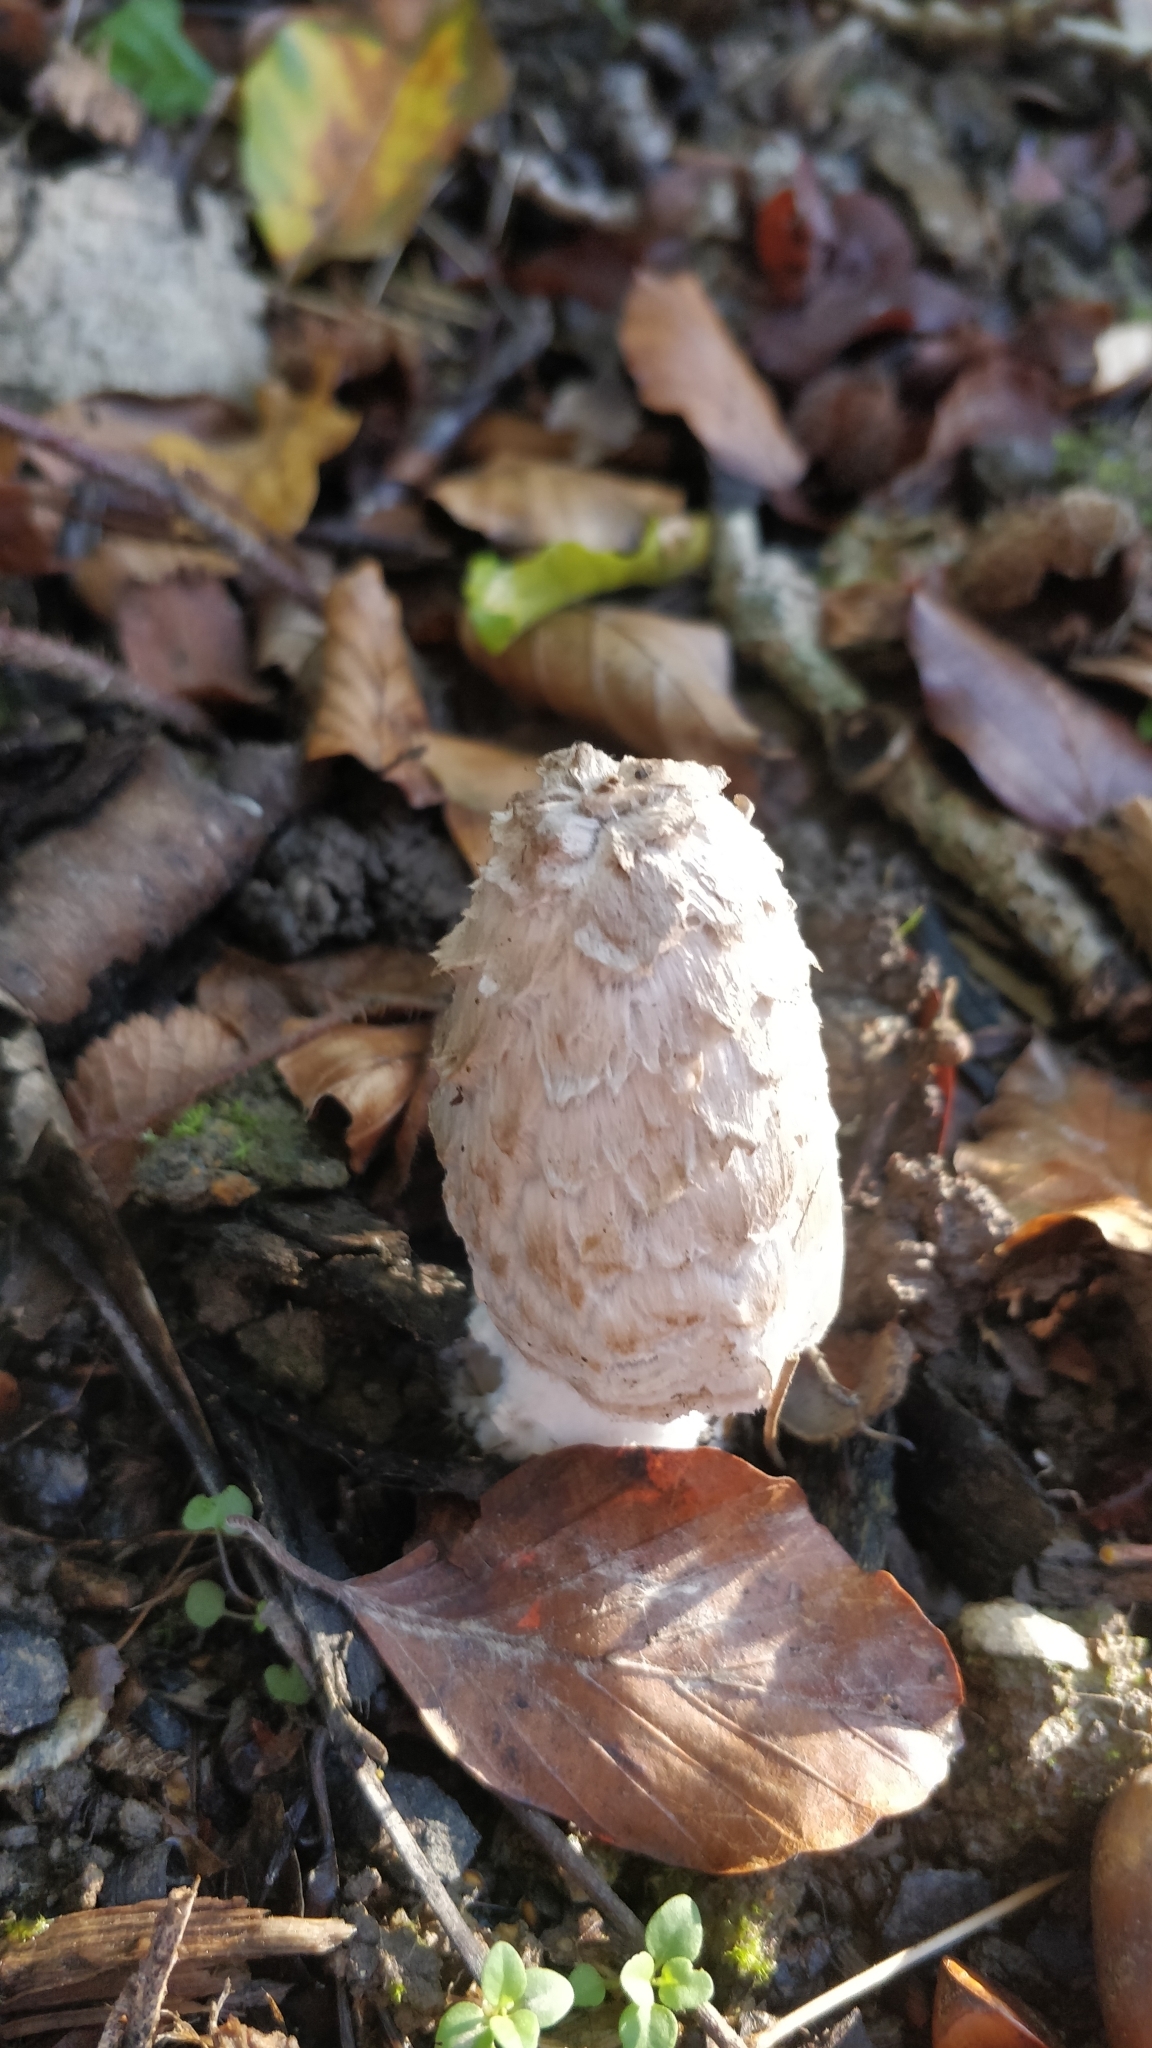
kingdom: Fungi
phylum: Basidiomycota
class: Agaricomycetes
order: Agaricales
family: Agaricaceae
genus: Coprinus
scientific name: Coprinus comatus
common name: Lawyer's wig
